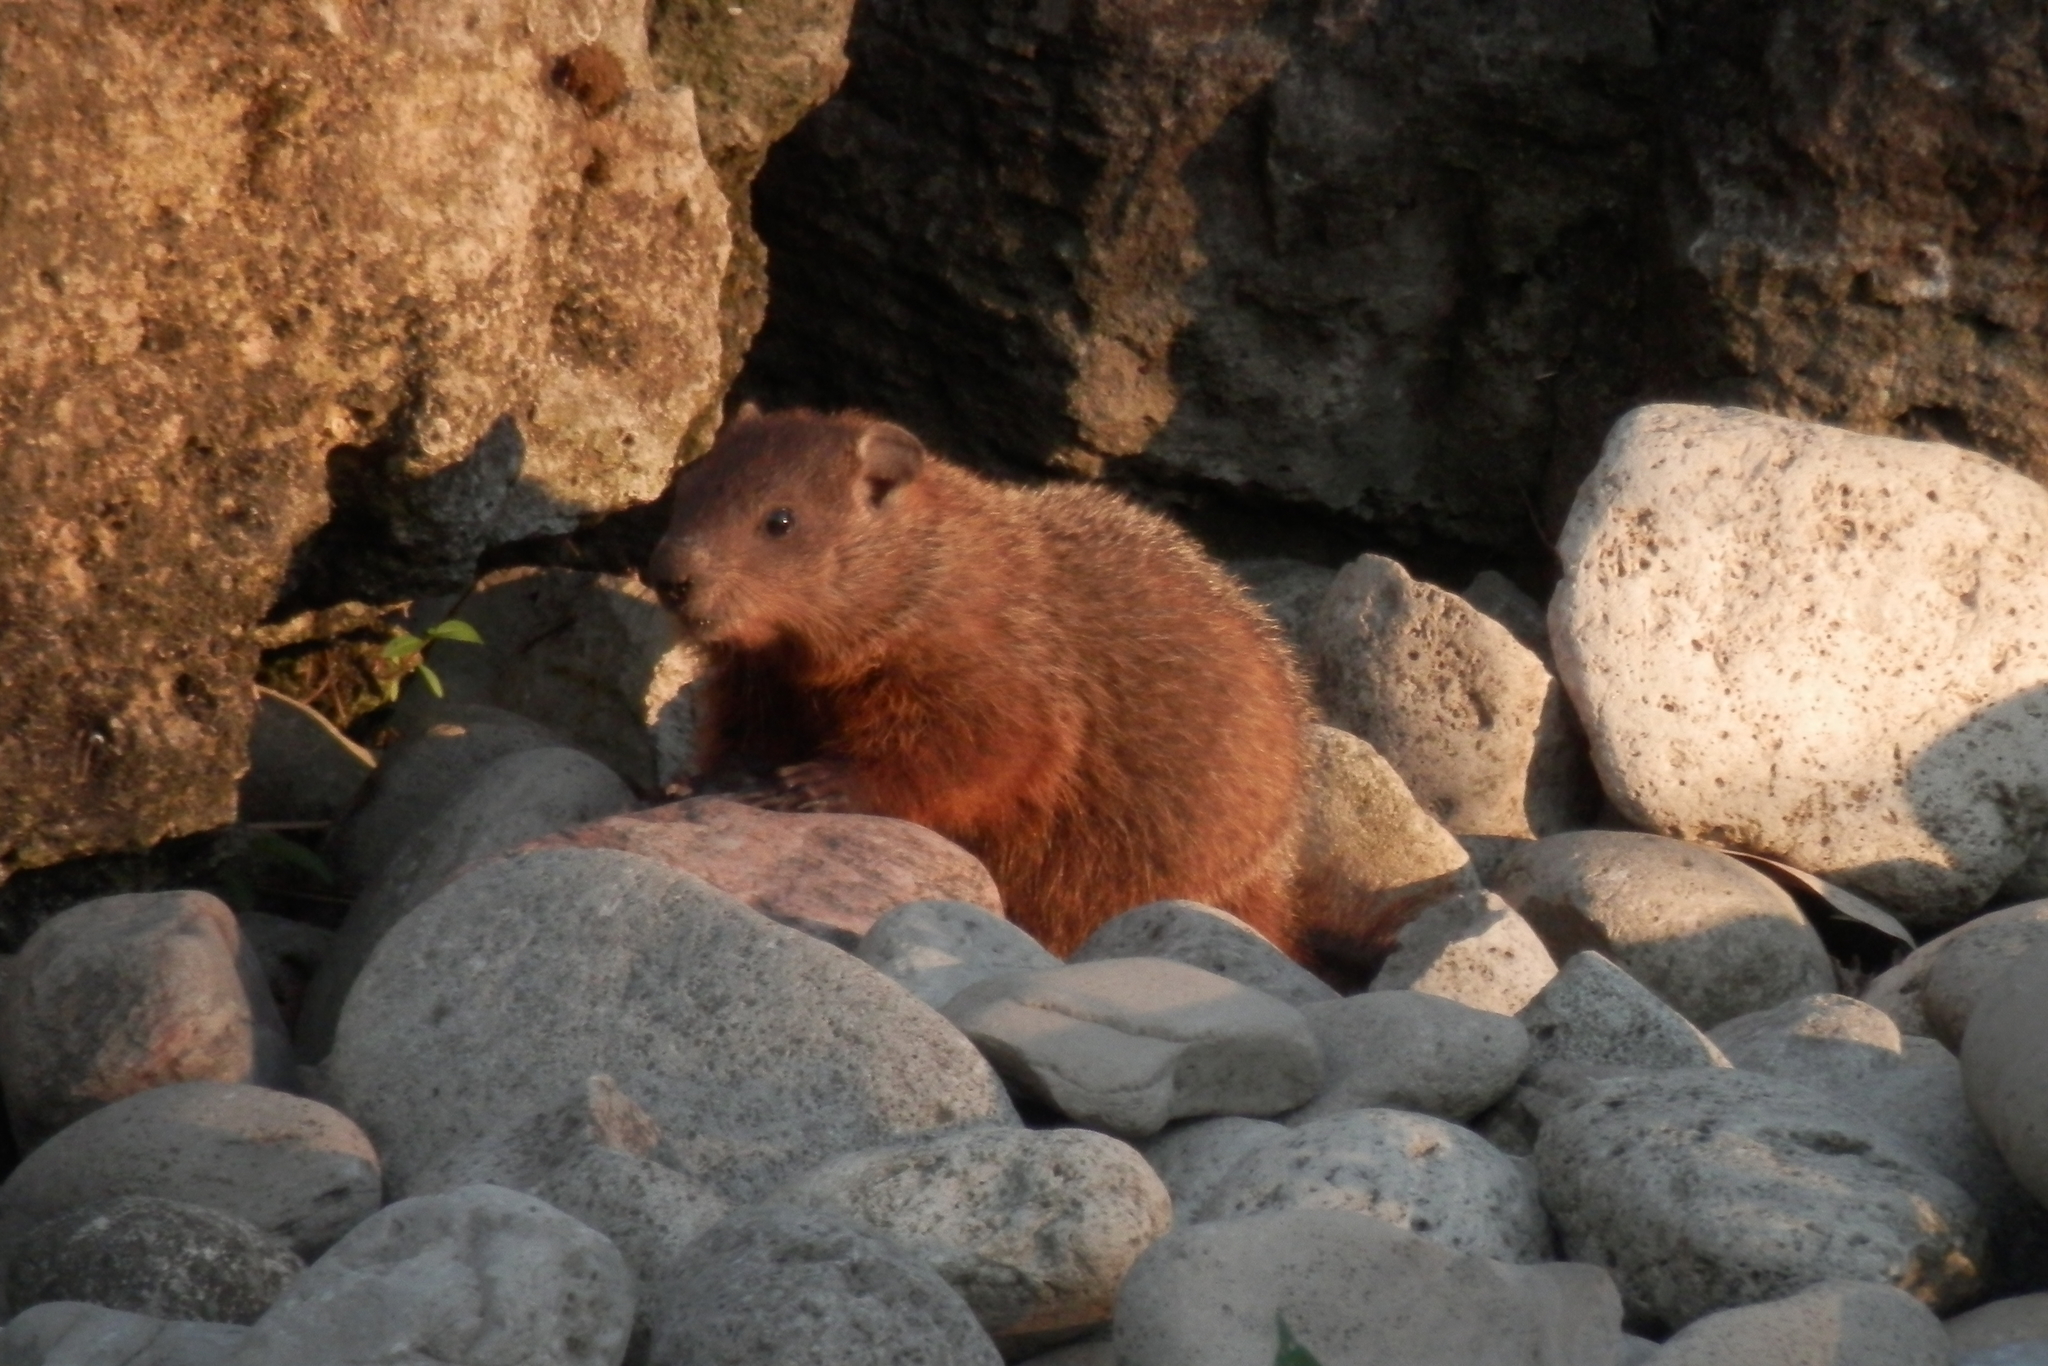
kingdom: Animalia
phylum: Chordata
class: Mammalia
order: Rodentia
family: Sciuridae
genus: Marmota
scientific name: Marmota monax
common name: Groundhog
